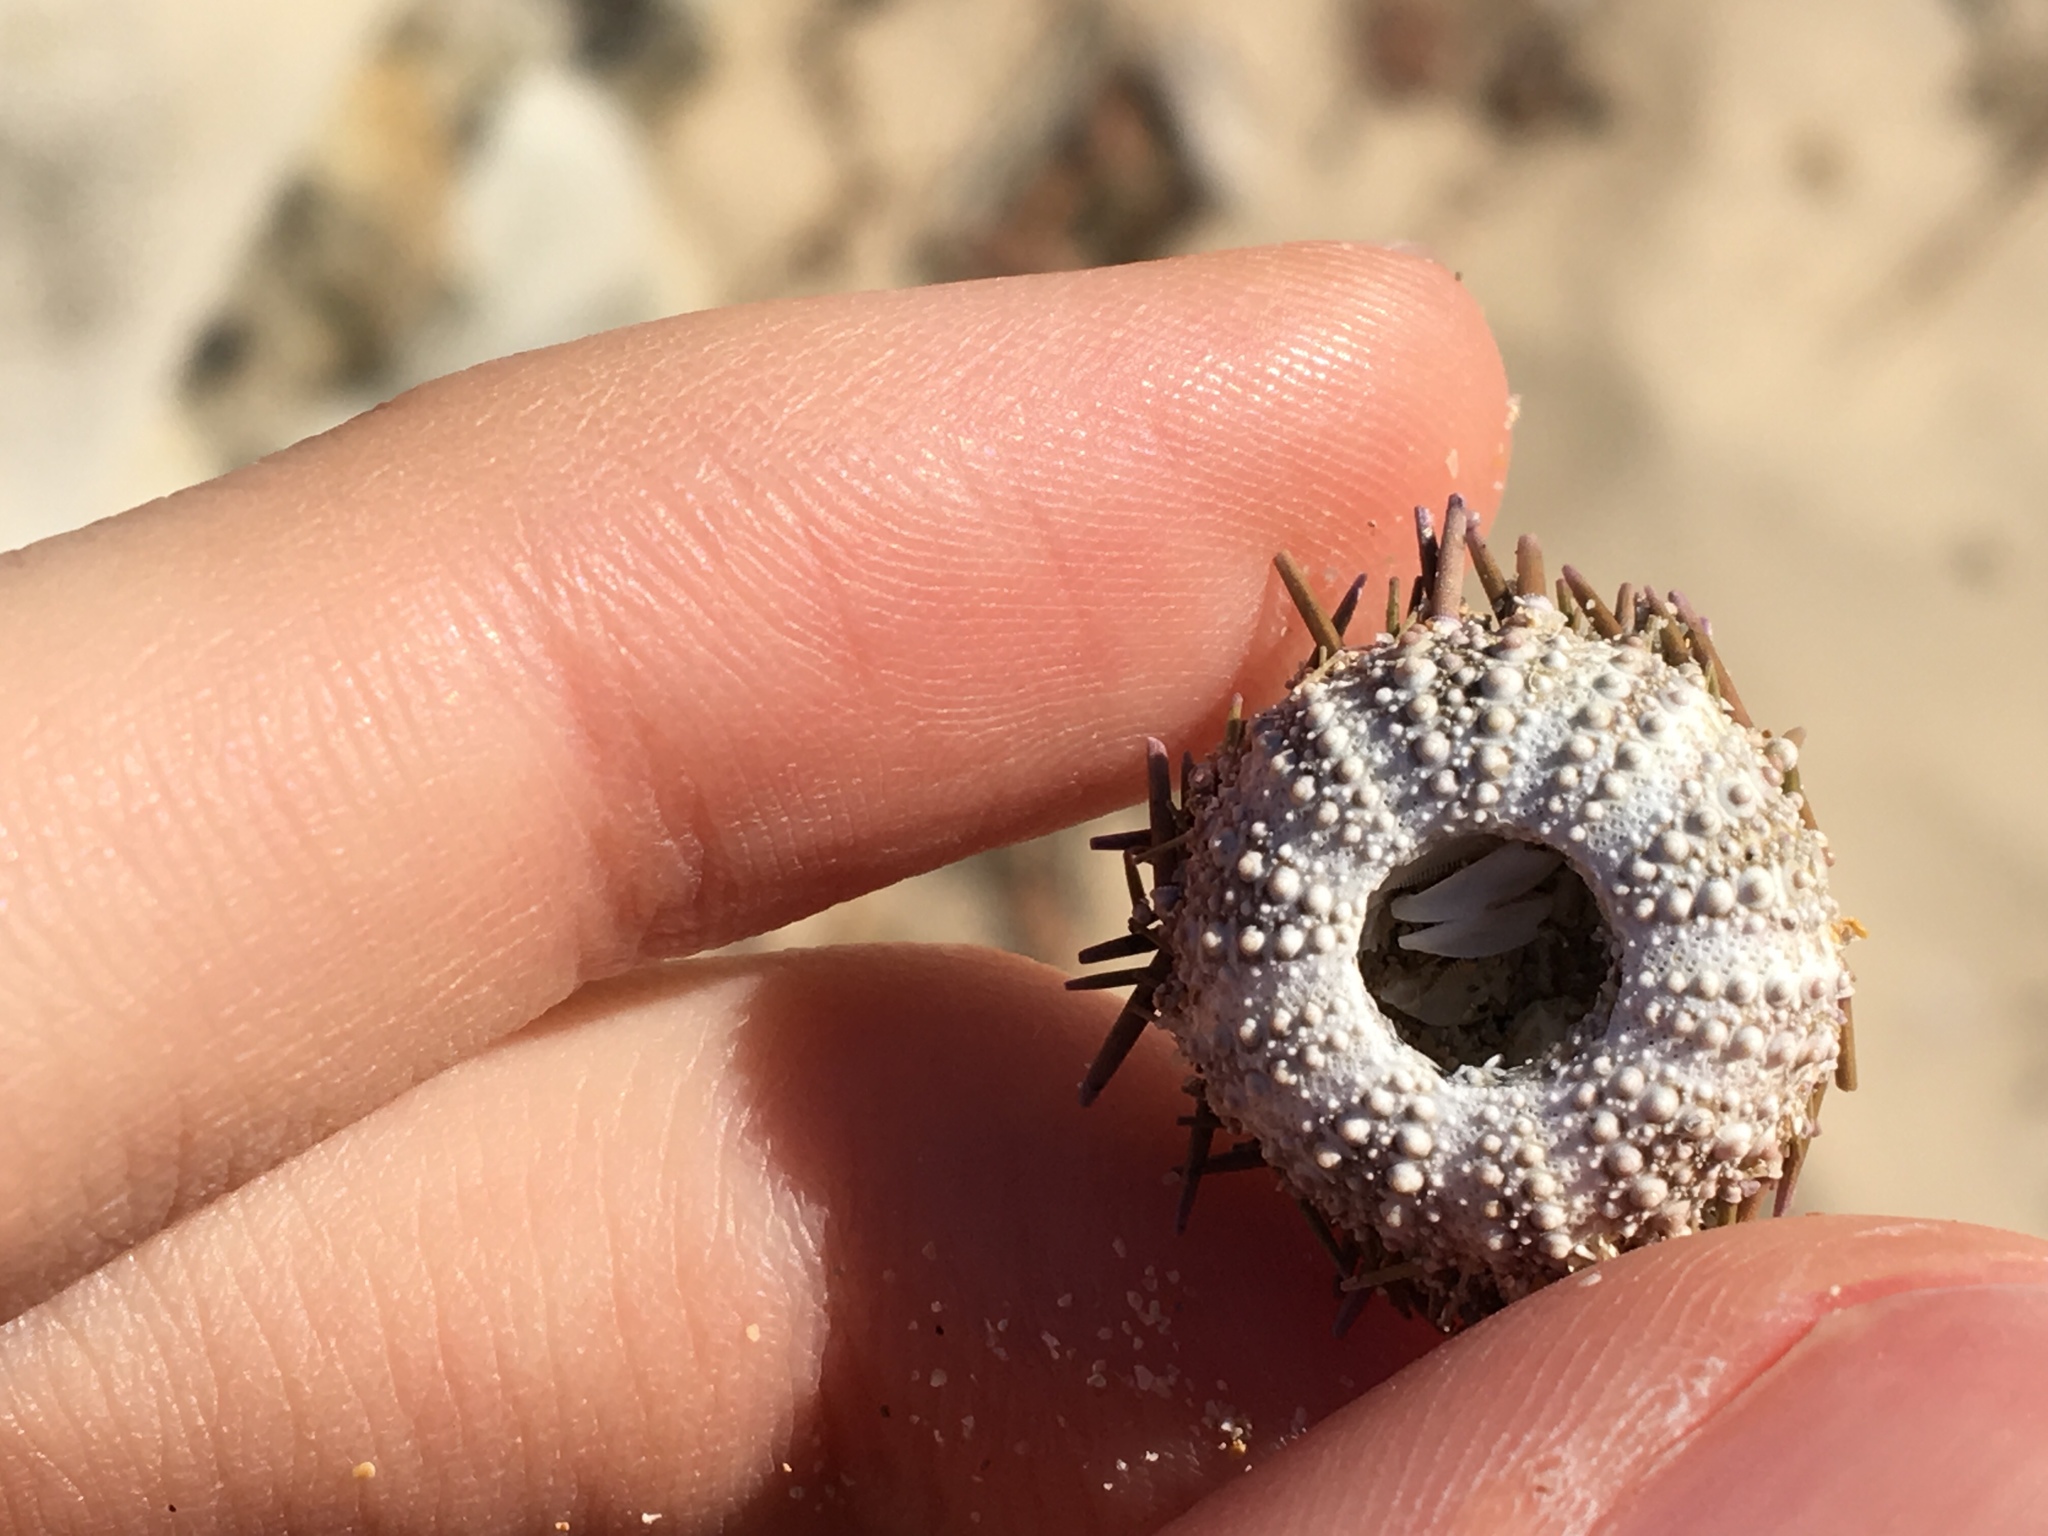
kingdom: Animalia
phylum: Echinodermata
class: Echinoidea
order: Camarodonta
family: Echinometridae
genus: Heliocidaris
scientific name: Heliocidaris erythrogramma
